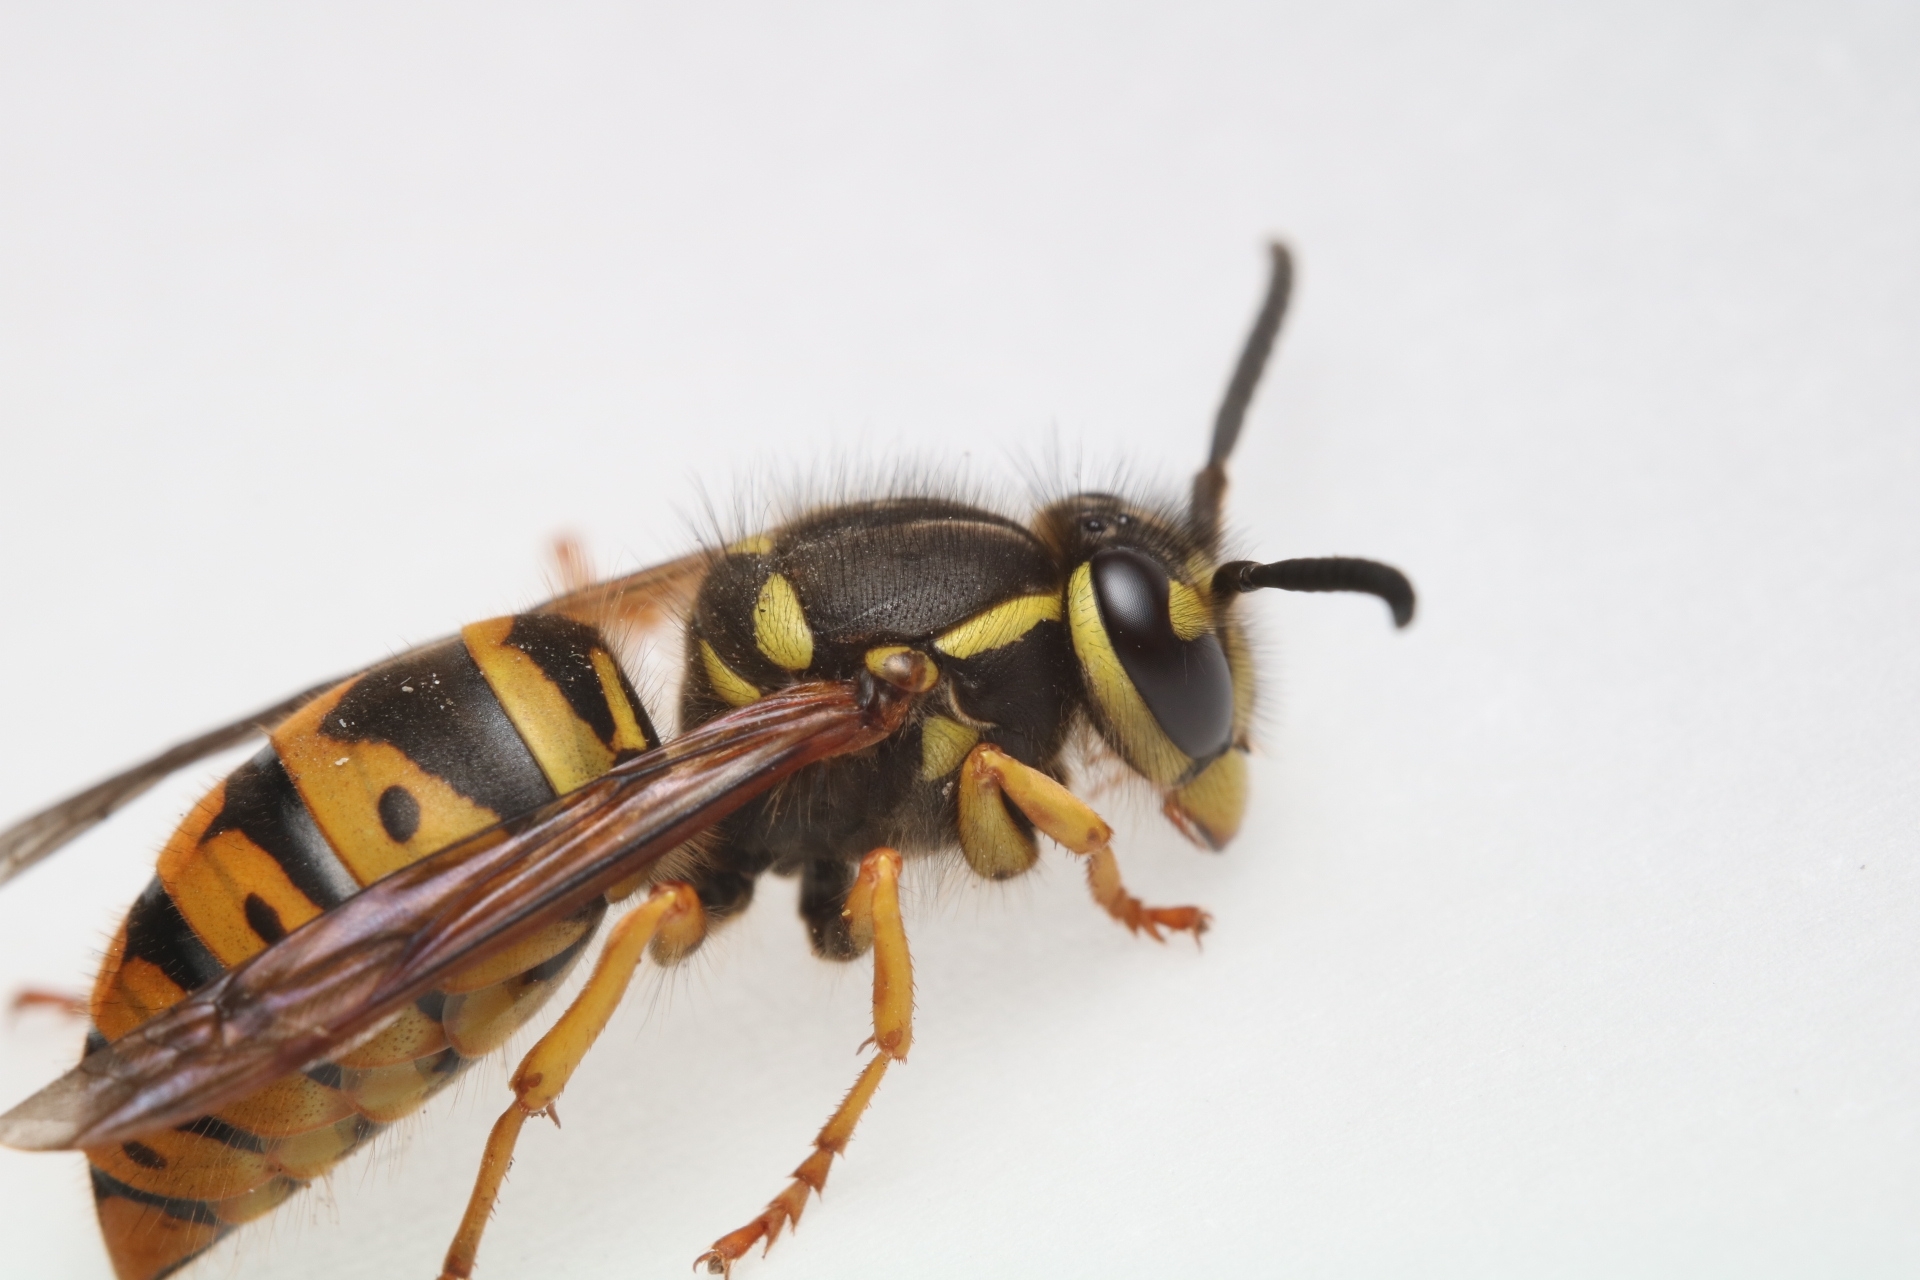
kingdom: Animalia
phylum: Arthropoda
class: Insecta
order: Hymenoptera
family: Vespidae
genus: Vespula
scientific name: Vespula maculifrons
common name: Eastern yellowjacket
